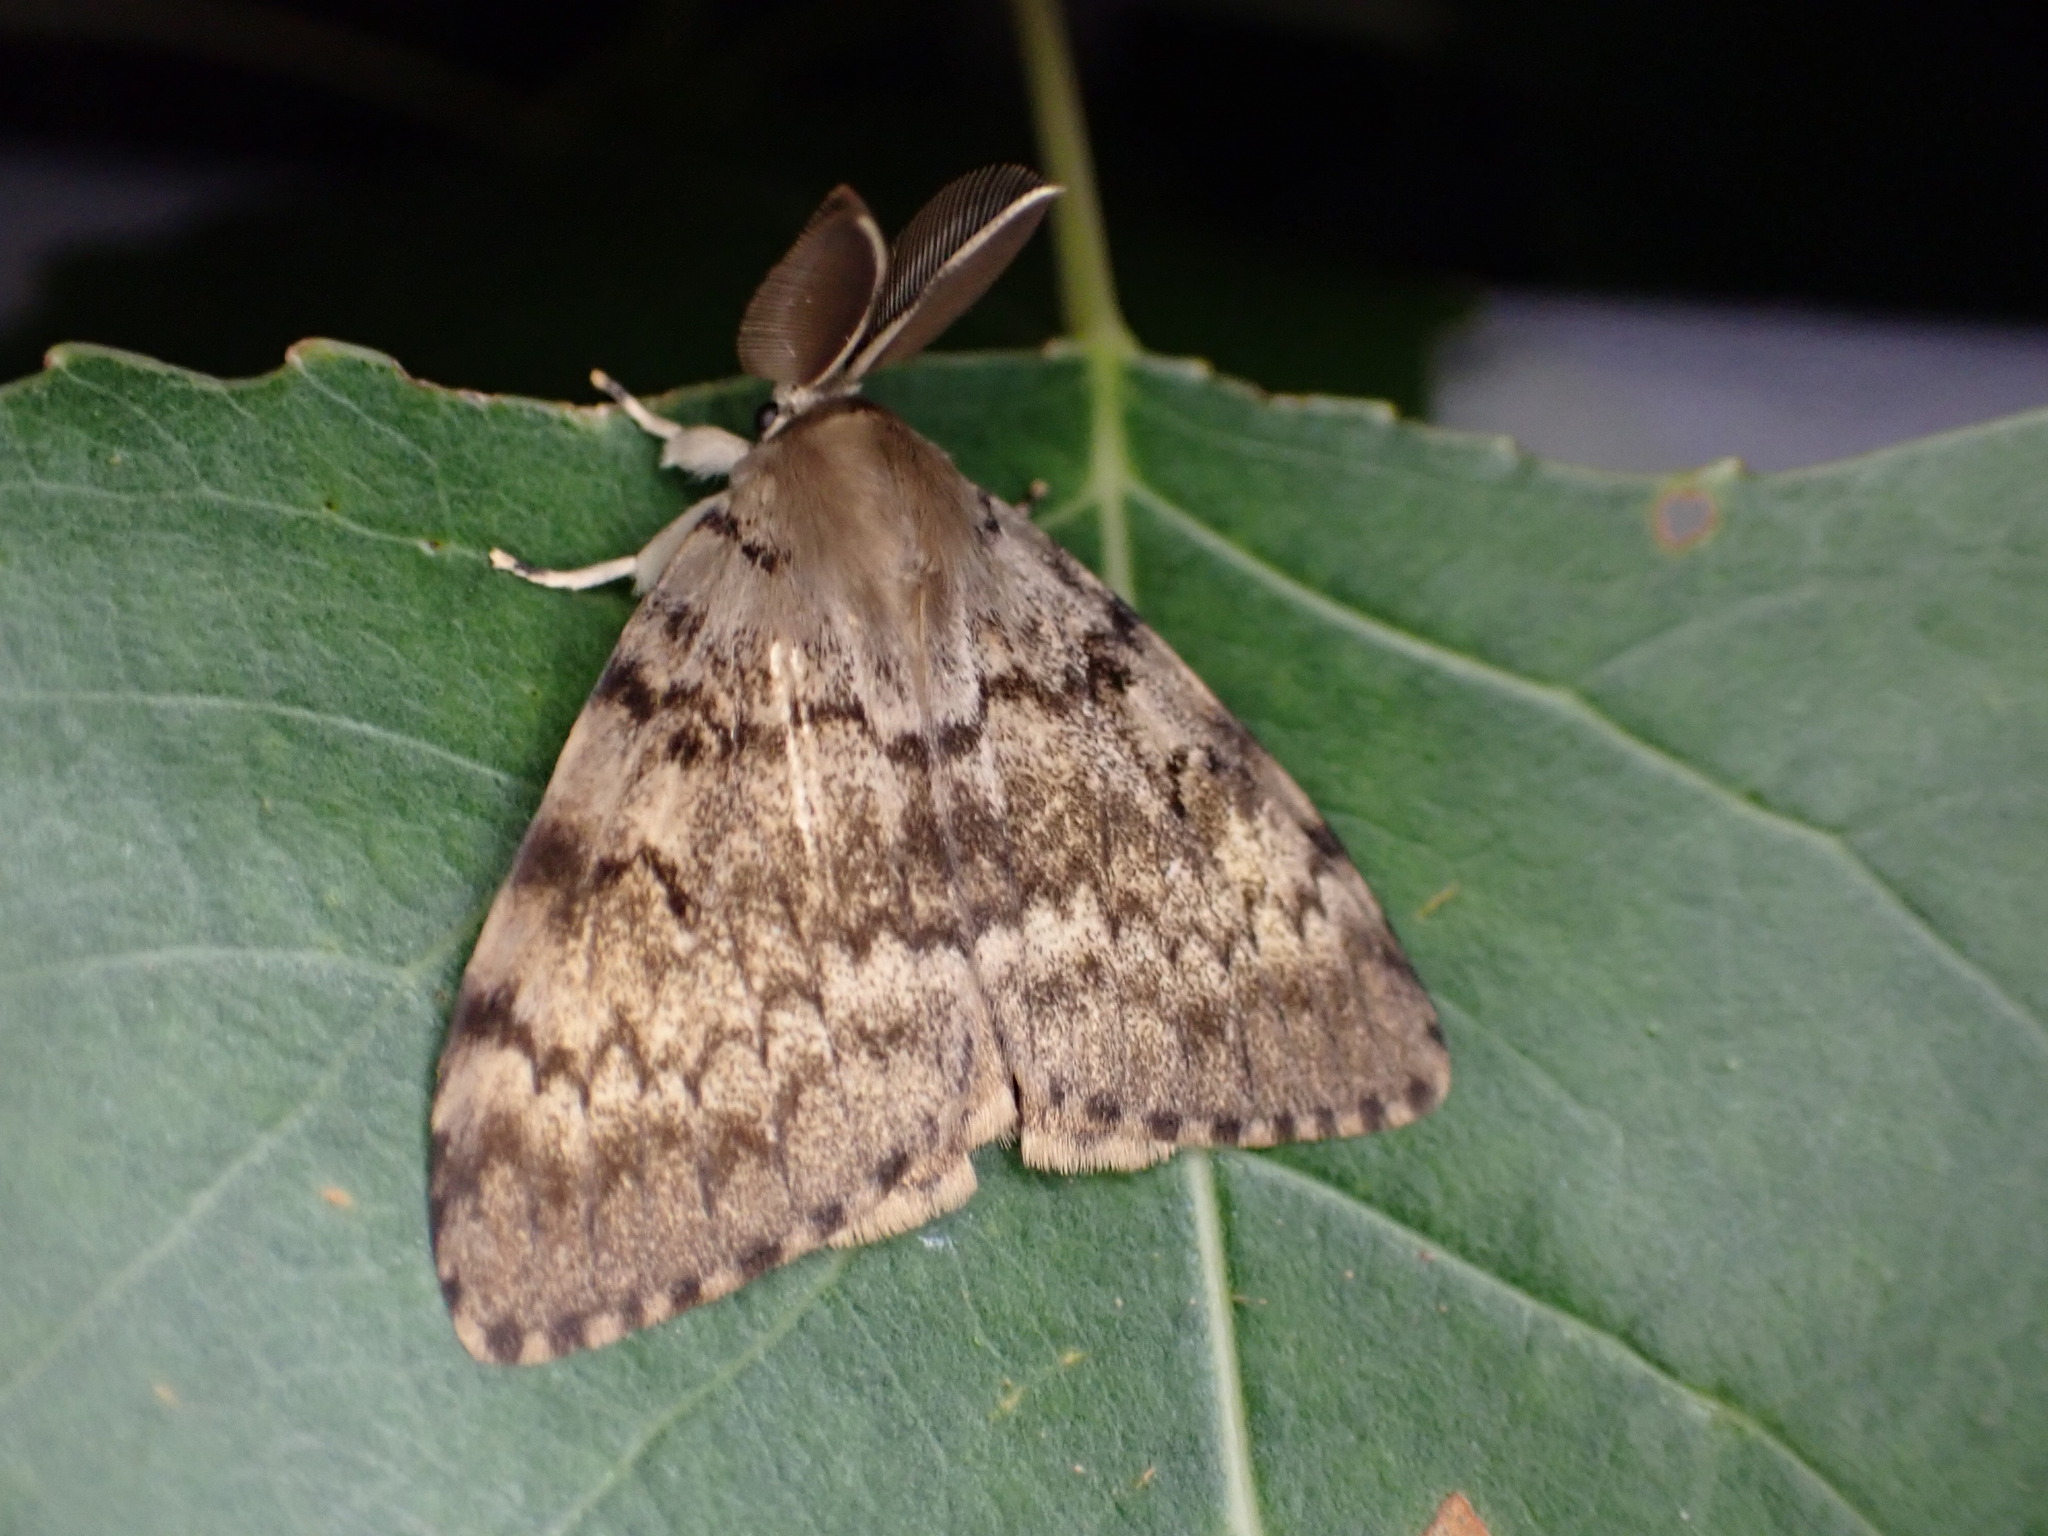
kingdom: Animalia
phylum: Arthropoda
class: Insecta
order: Lepidoptera
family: Erebidae
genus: Lymantria
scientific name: Lymantria dispar
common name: Gypsy moth
